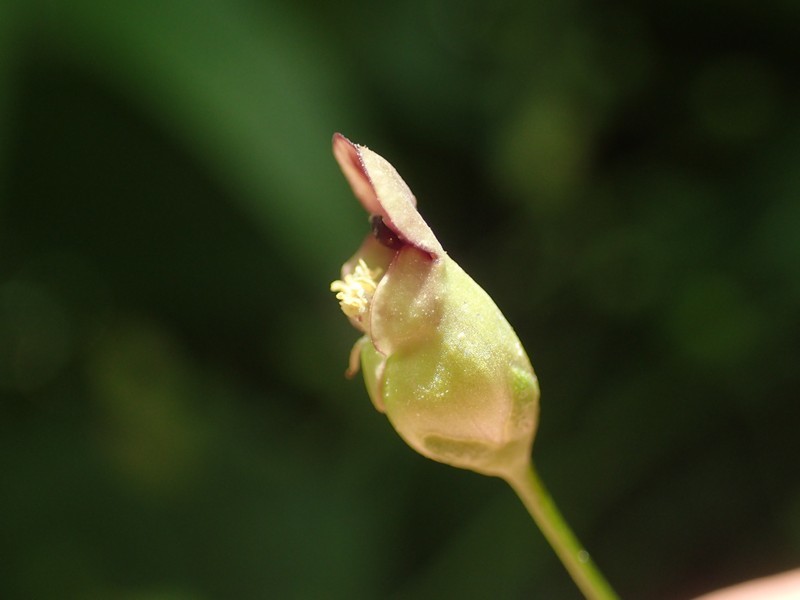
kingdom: Plantae
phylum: Tracheophyta
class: Magnoliopsida
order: Lamiales
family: Scrophulariaceae
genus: Scrophularia
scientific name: Scrophularia marilandica
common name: Eastern figwort
